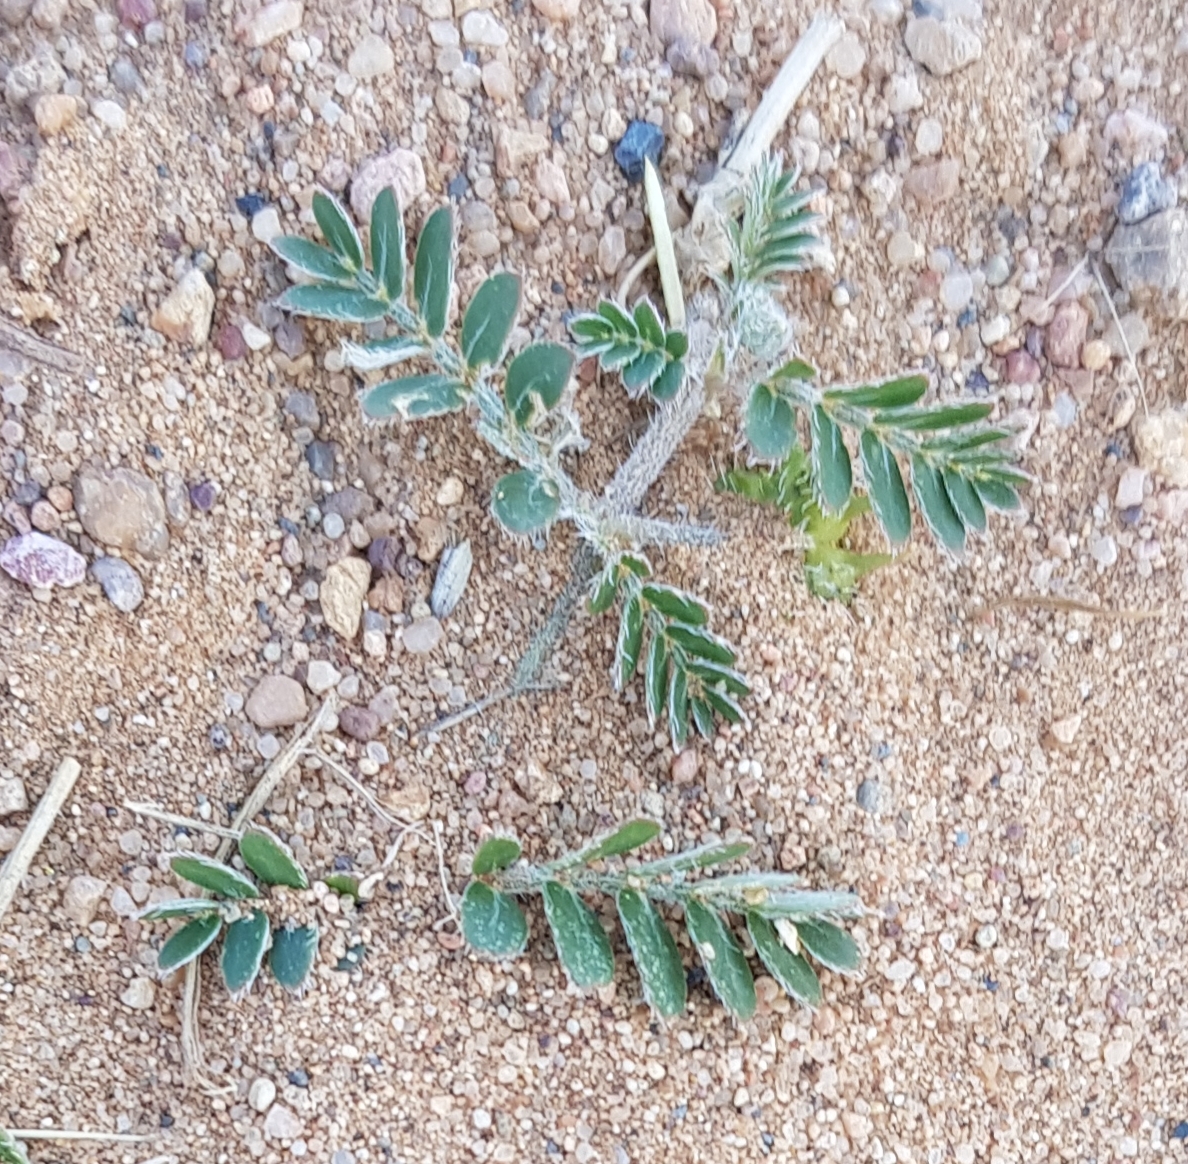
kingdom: Plantae
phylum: Tracheophyta
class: Magnoliopsida
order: Zygophyllales
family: Zygophyllaceae
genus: Tribulus
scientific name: Tribulus terrestris
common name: Puncturevine
